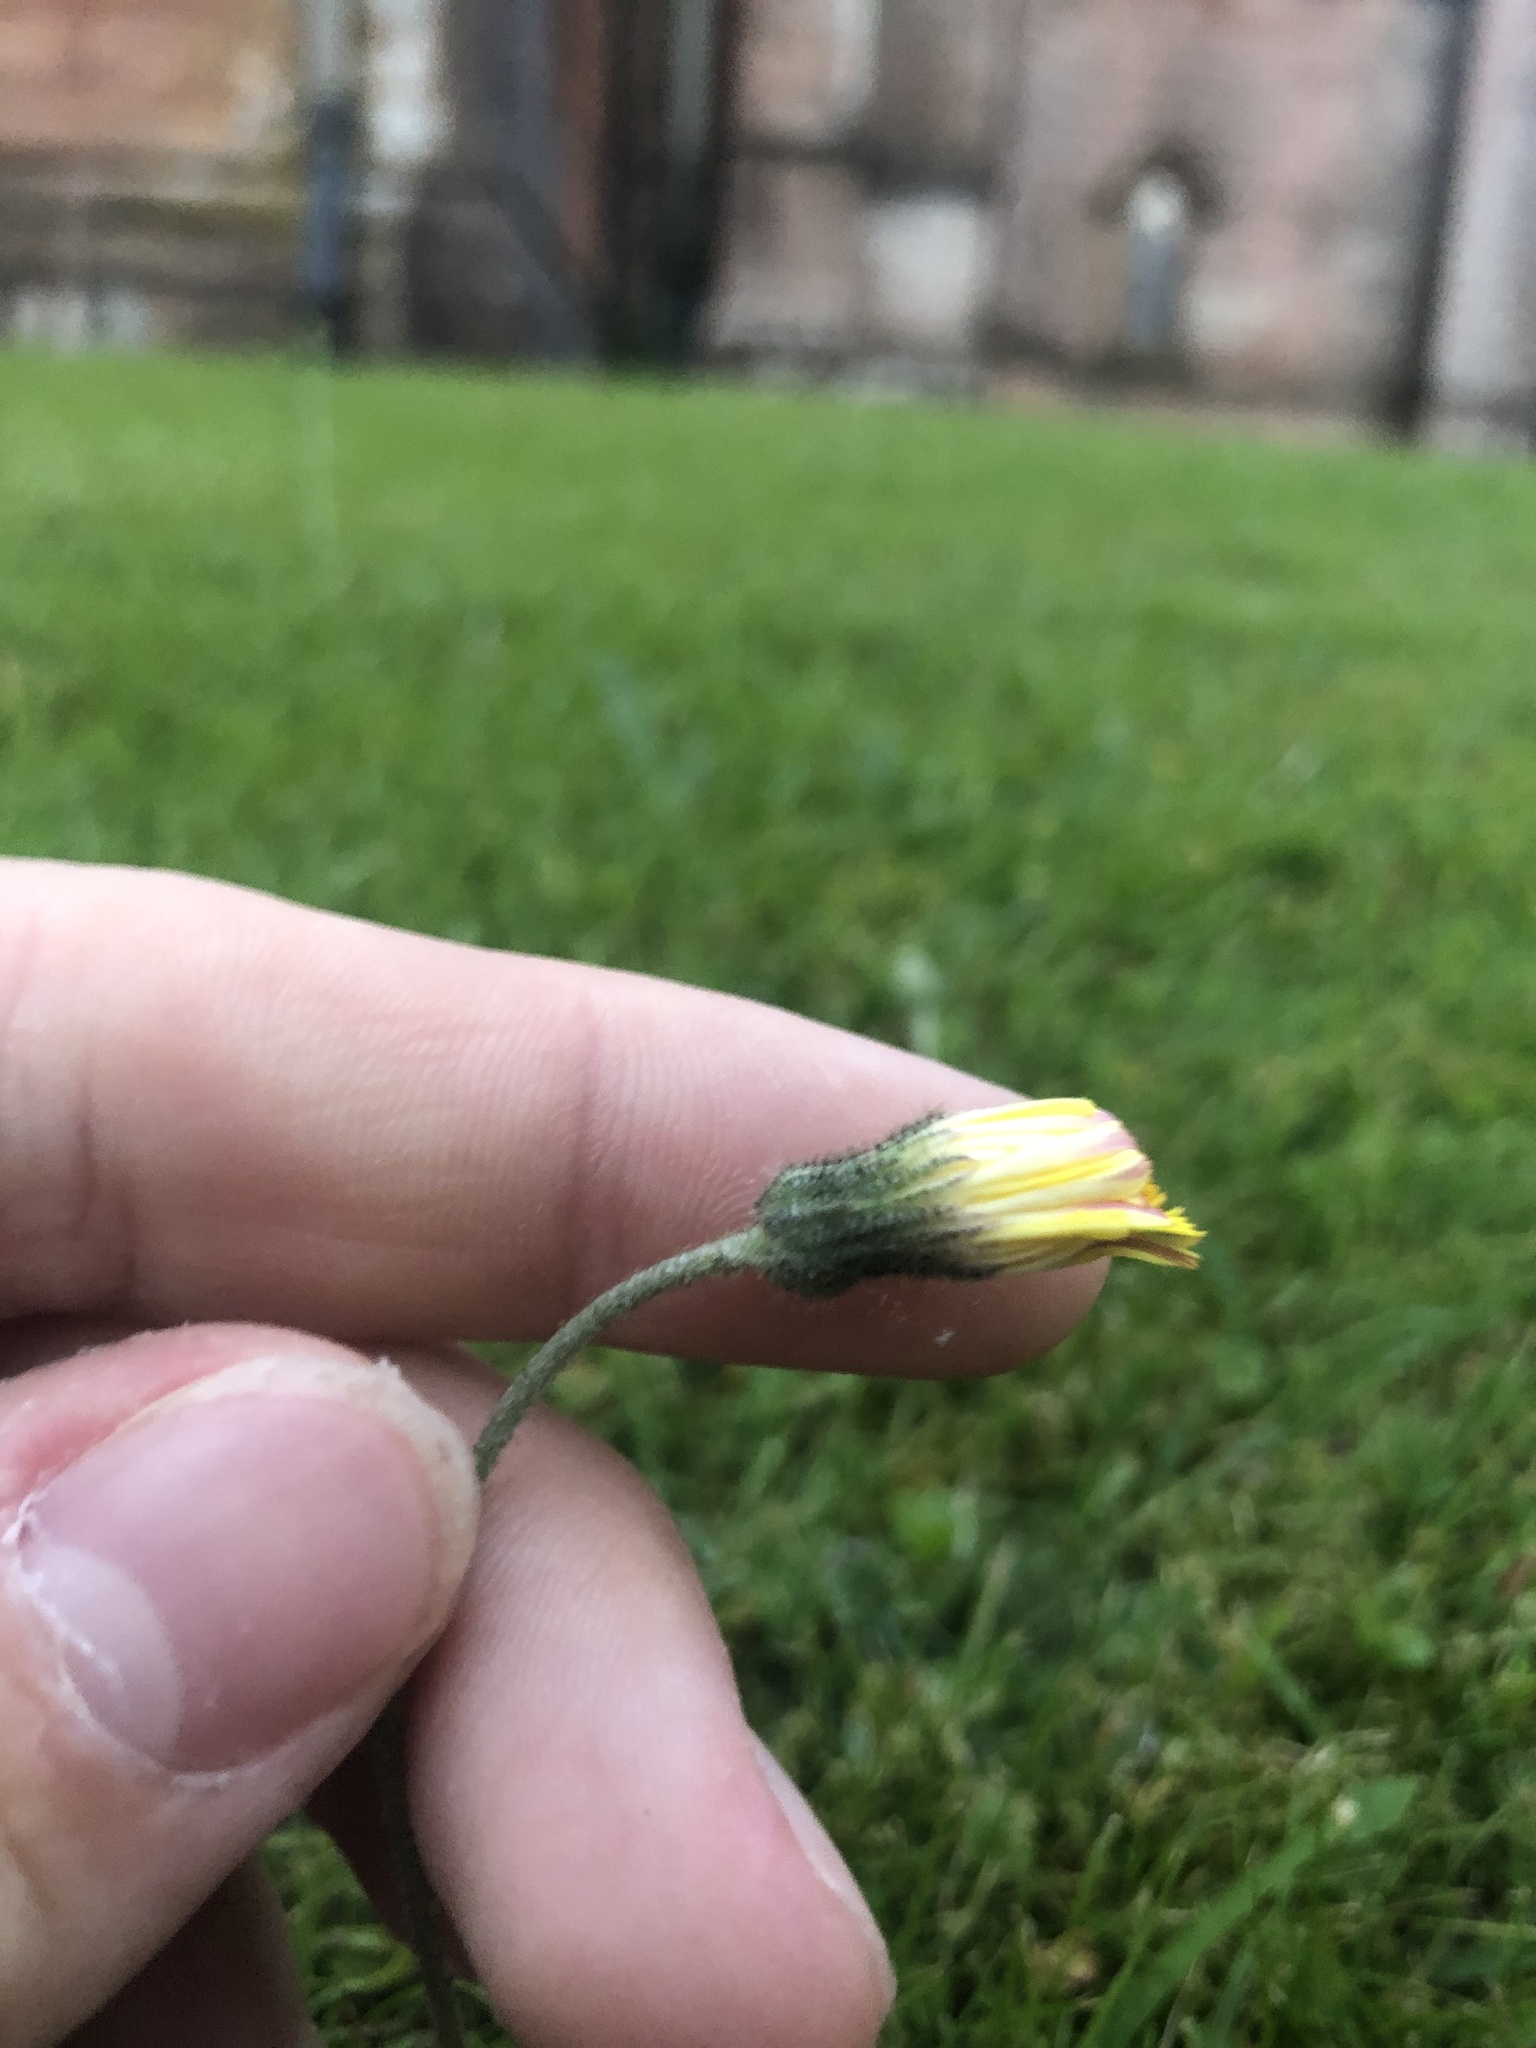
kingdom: Plantae
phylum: Tracheophyta
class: Magnoliopsida
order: Asterales
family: Asteraceae
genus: Pilosella
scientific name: Pilosella officinarum
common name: Mouse-ear hawkweed
